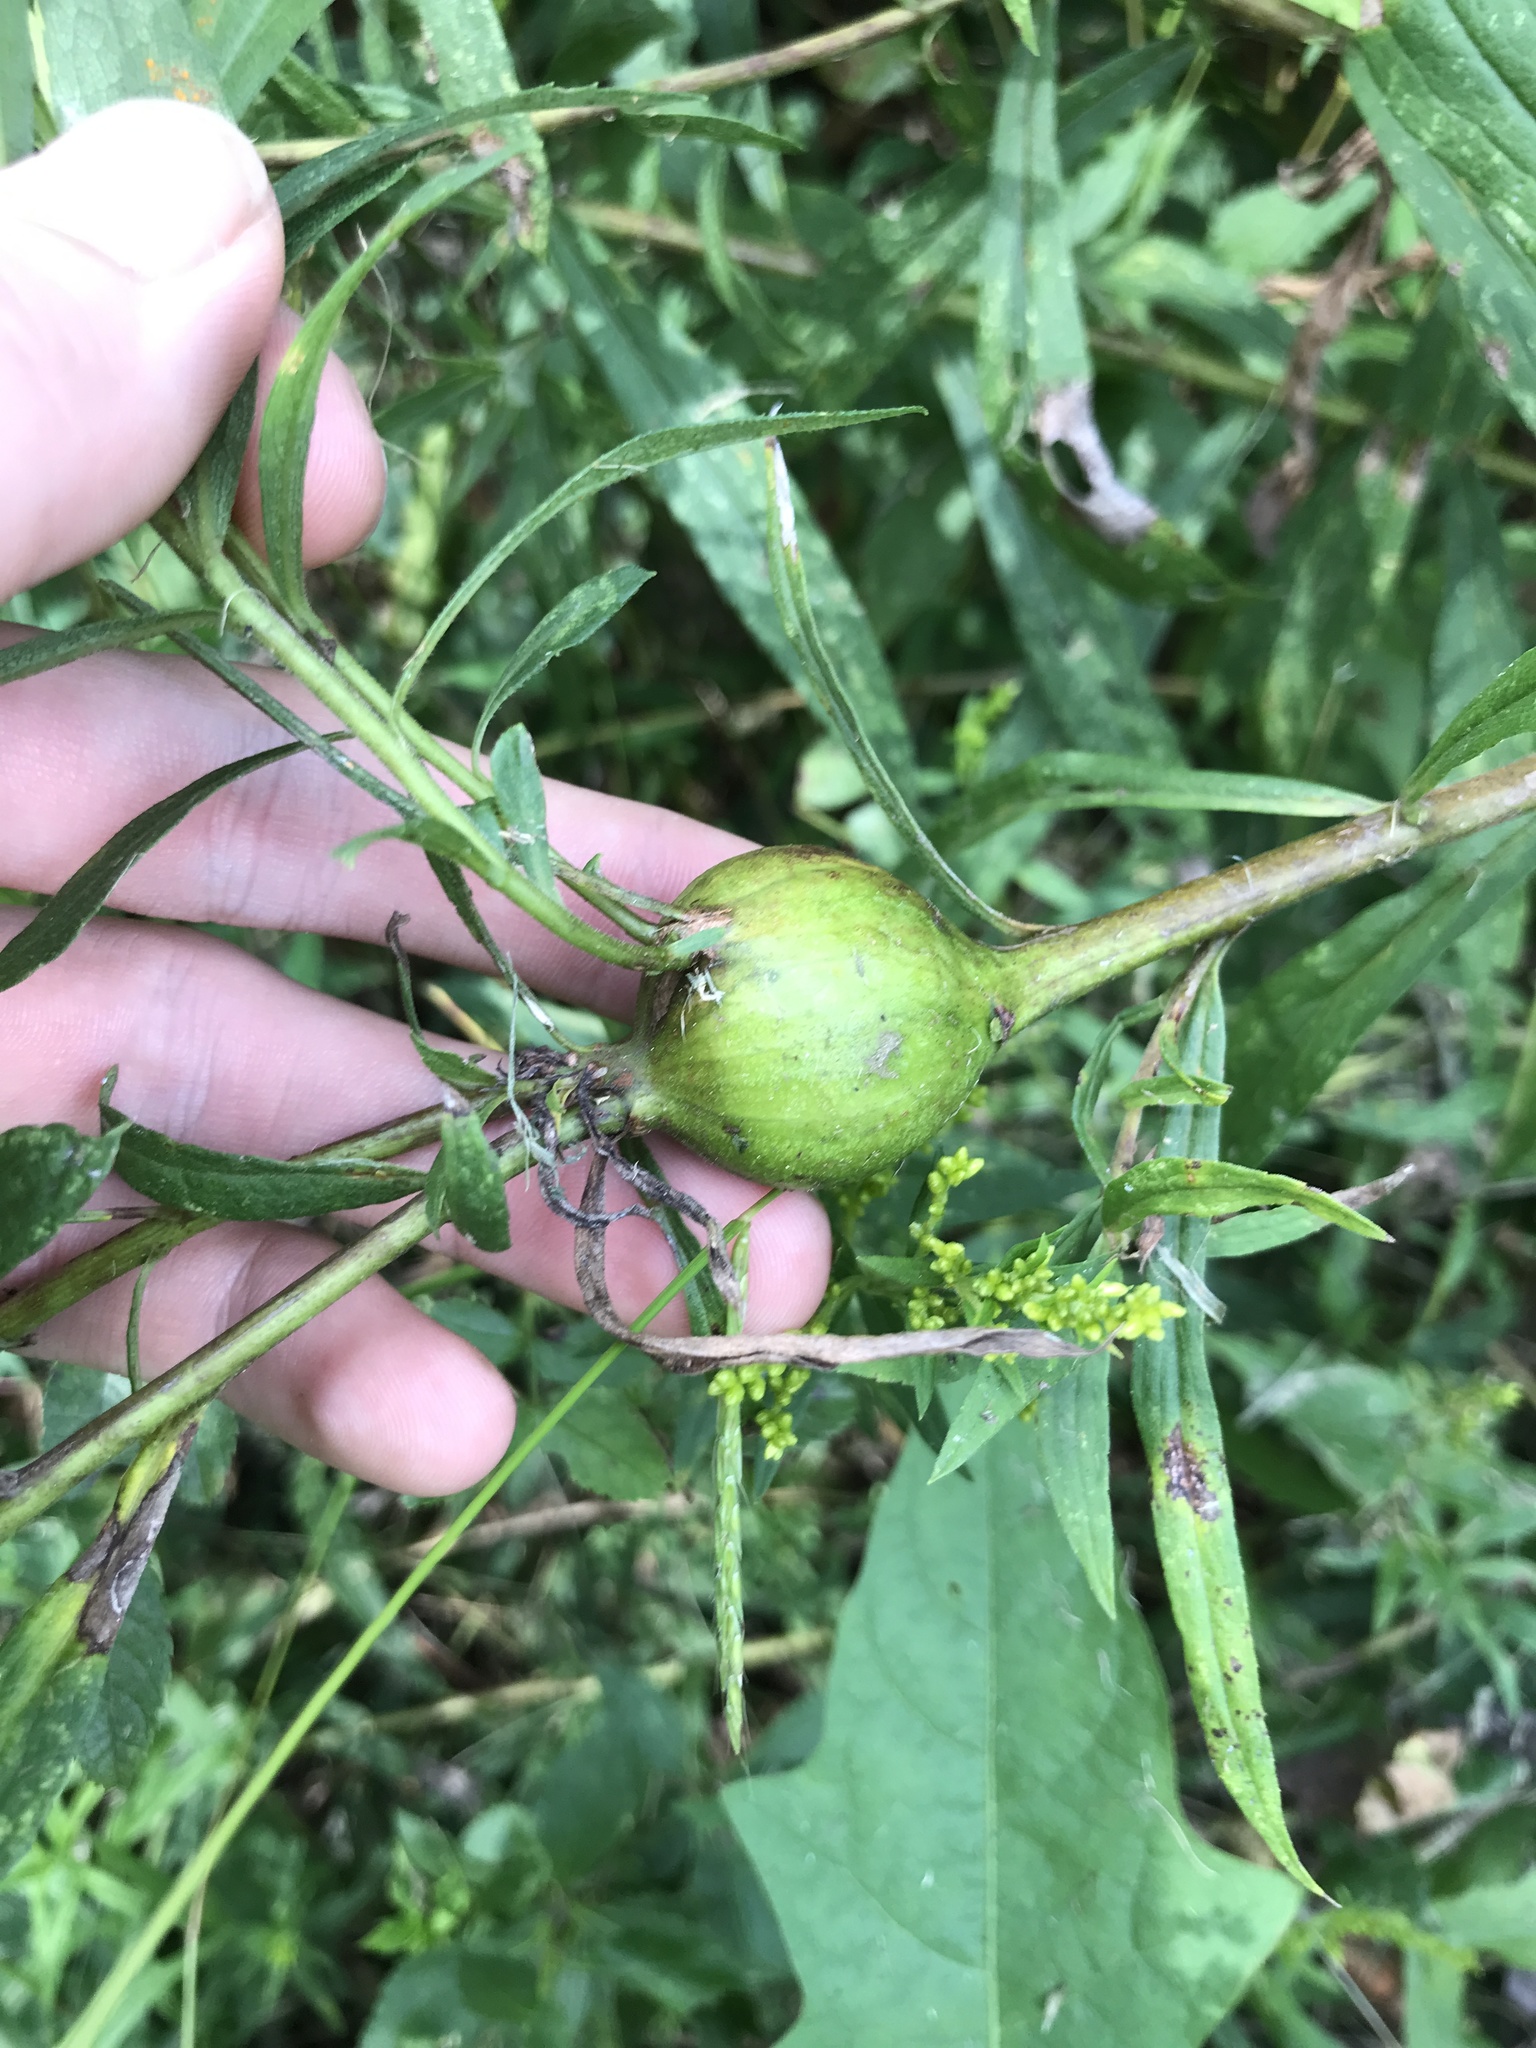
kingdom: Animalia
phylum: Arthropoda
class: Insecta
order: Diptera
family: Tephritidae
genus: Eurosta
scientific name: Eurosta solidaginis
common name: Goldenrod gall fly
